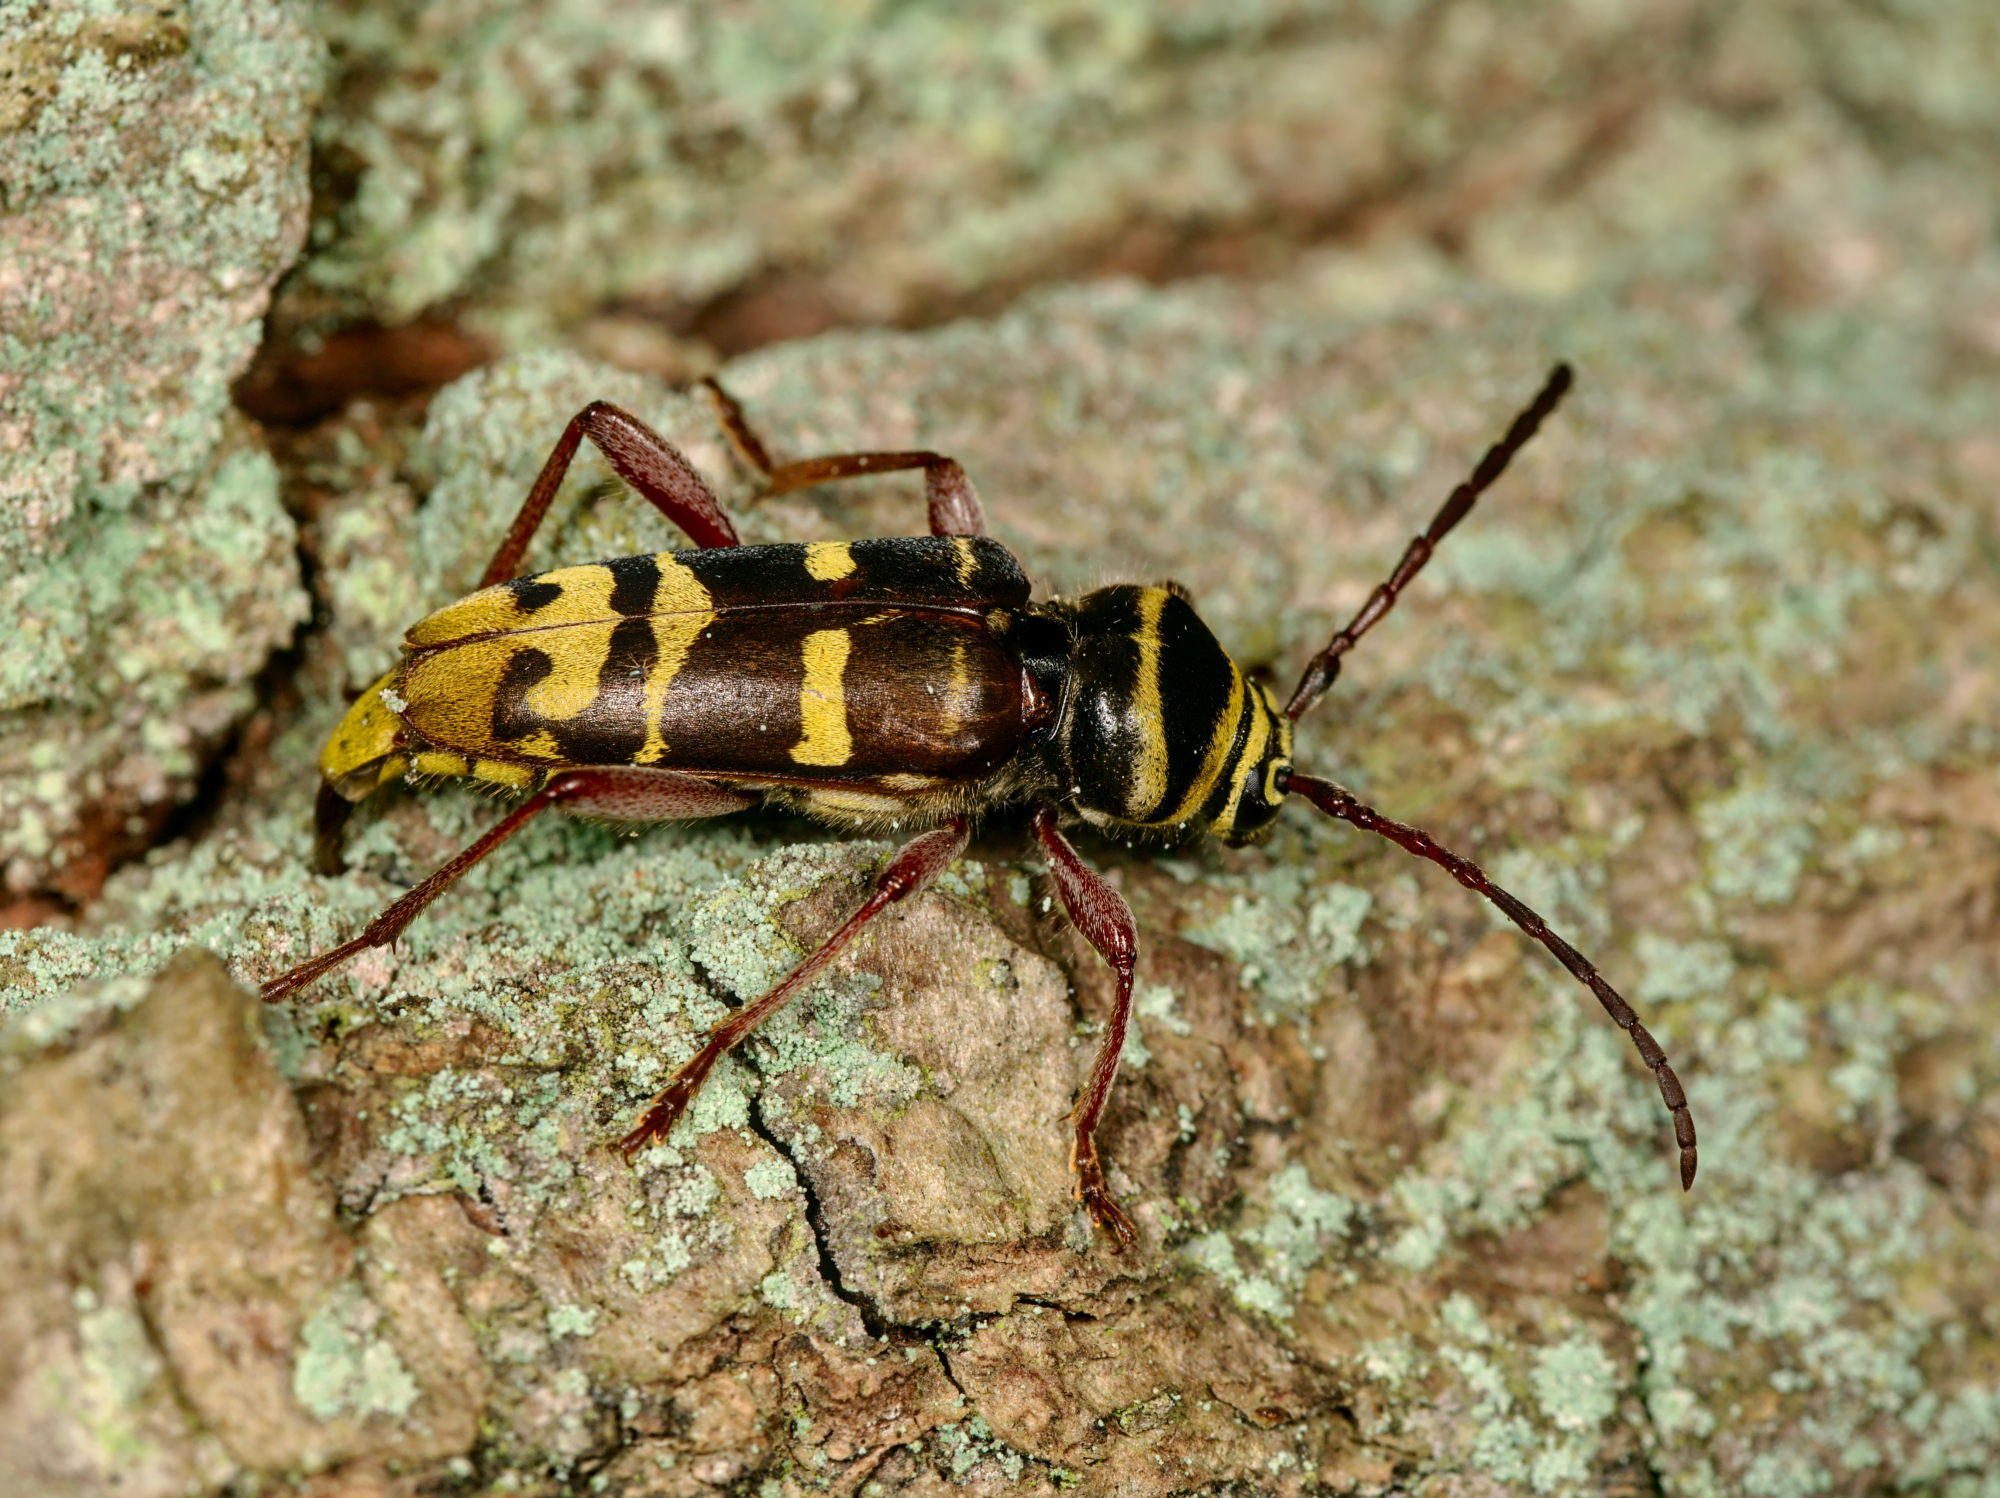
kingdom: Animalia
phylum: Arthropoda
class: Insecta
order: Coleoptera
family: Cerambycidae
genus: Plagionotus
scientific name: Plagionotus detritus
